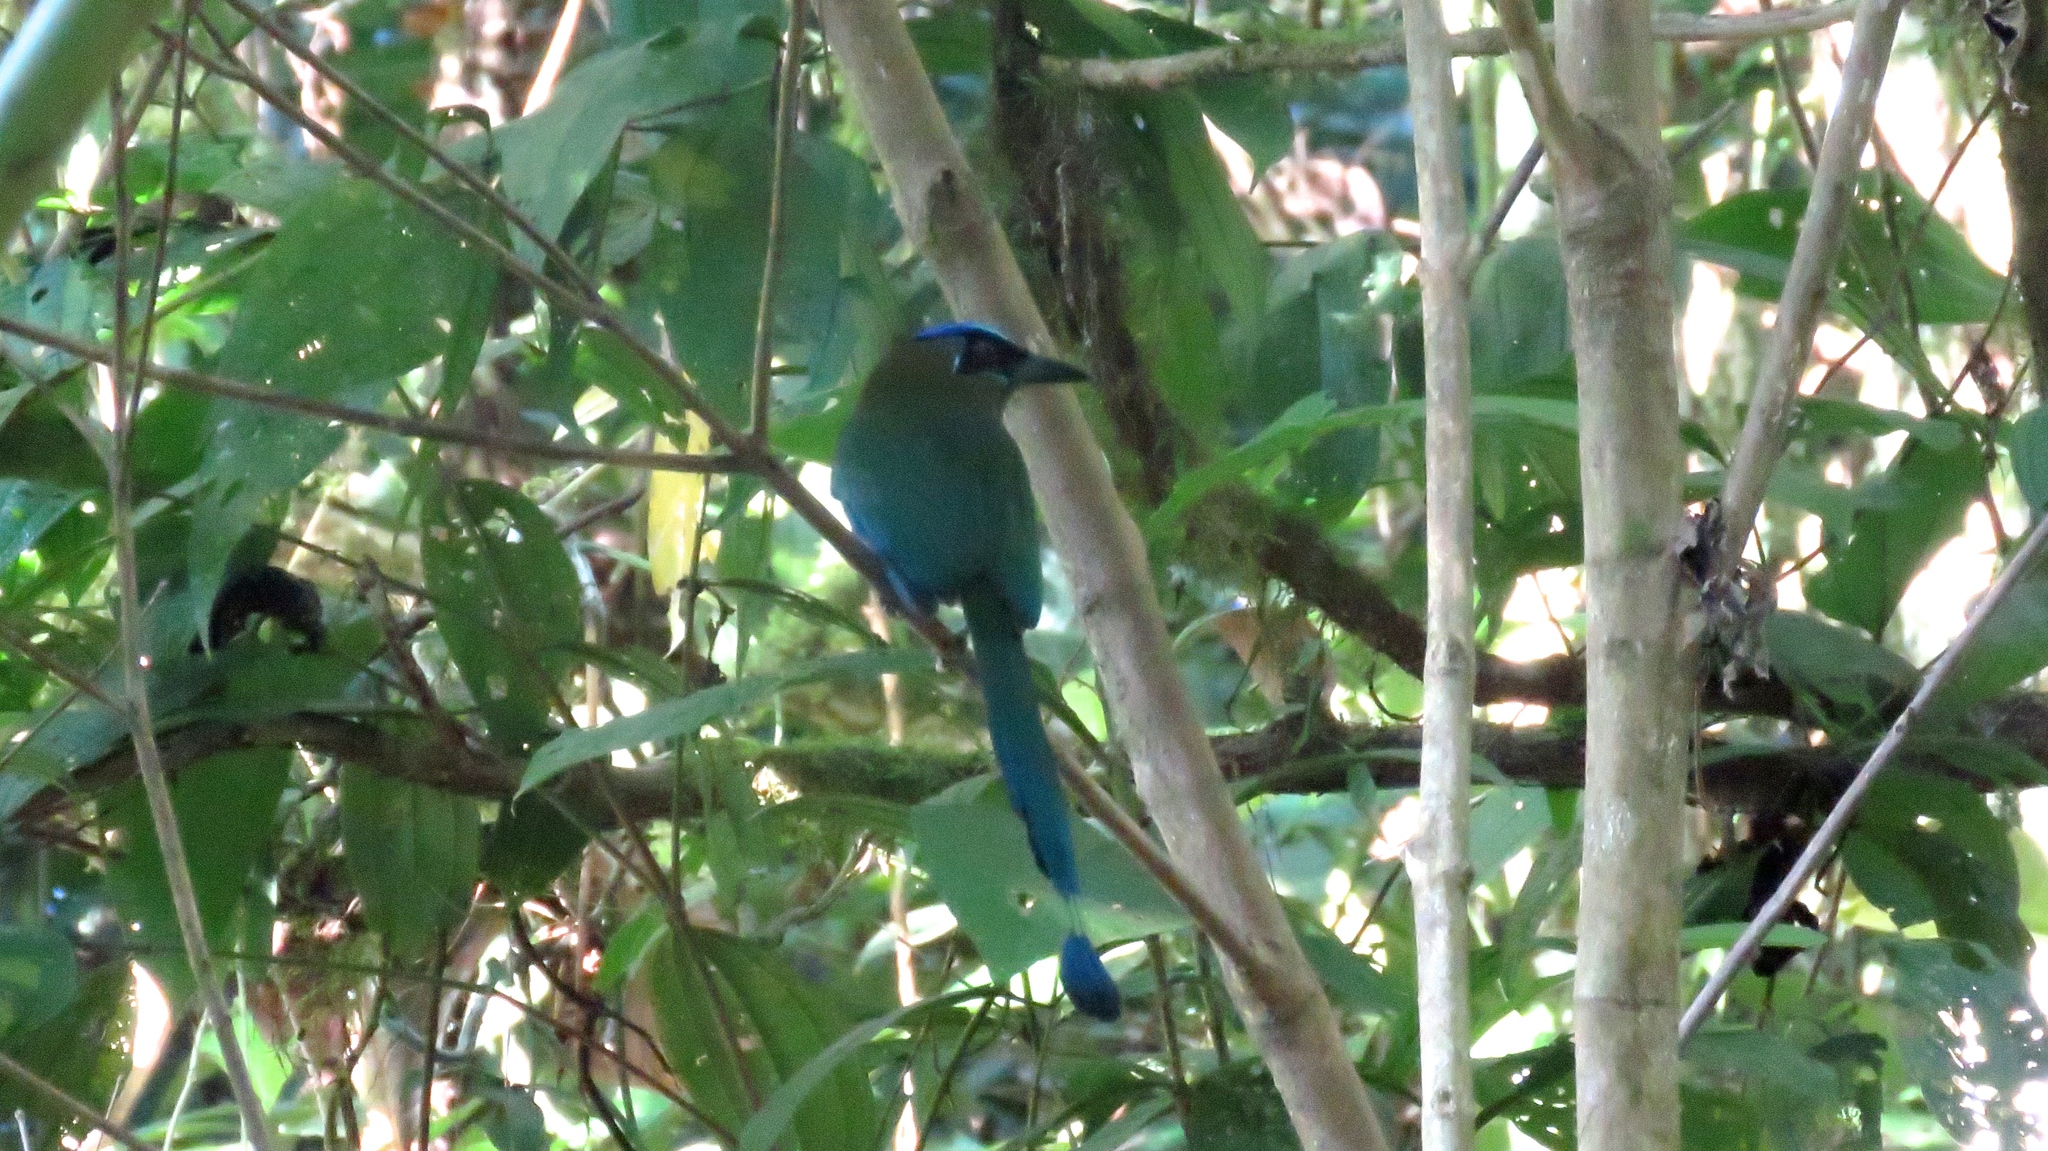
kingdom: Animalia
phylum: Chordata
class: Aves
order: Coraciiformes
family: Momotidae
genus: Momotus
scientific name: Momotus lessonii
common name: Lesson's motmot
